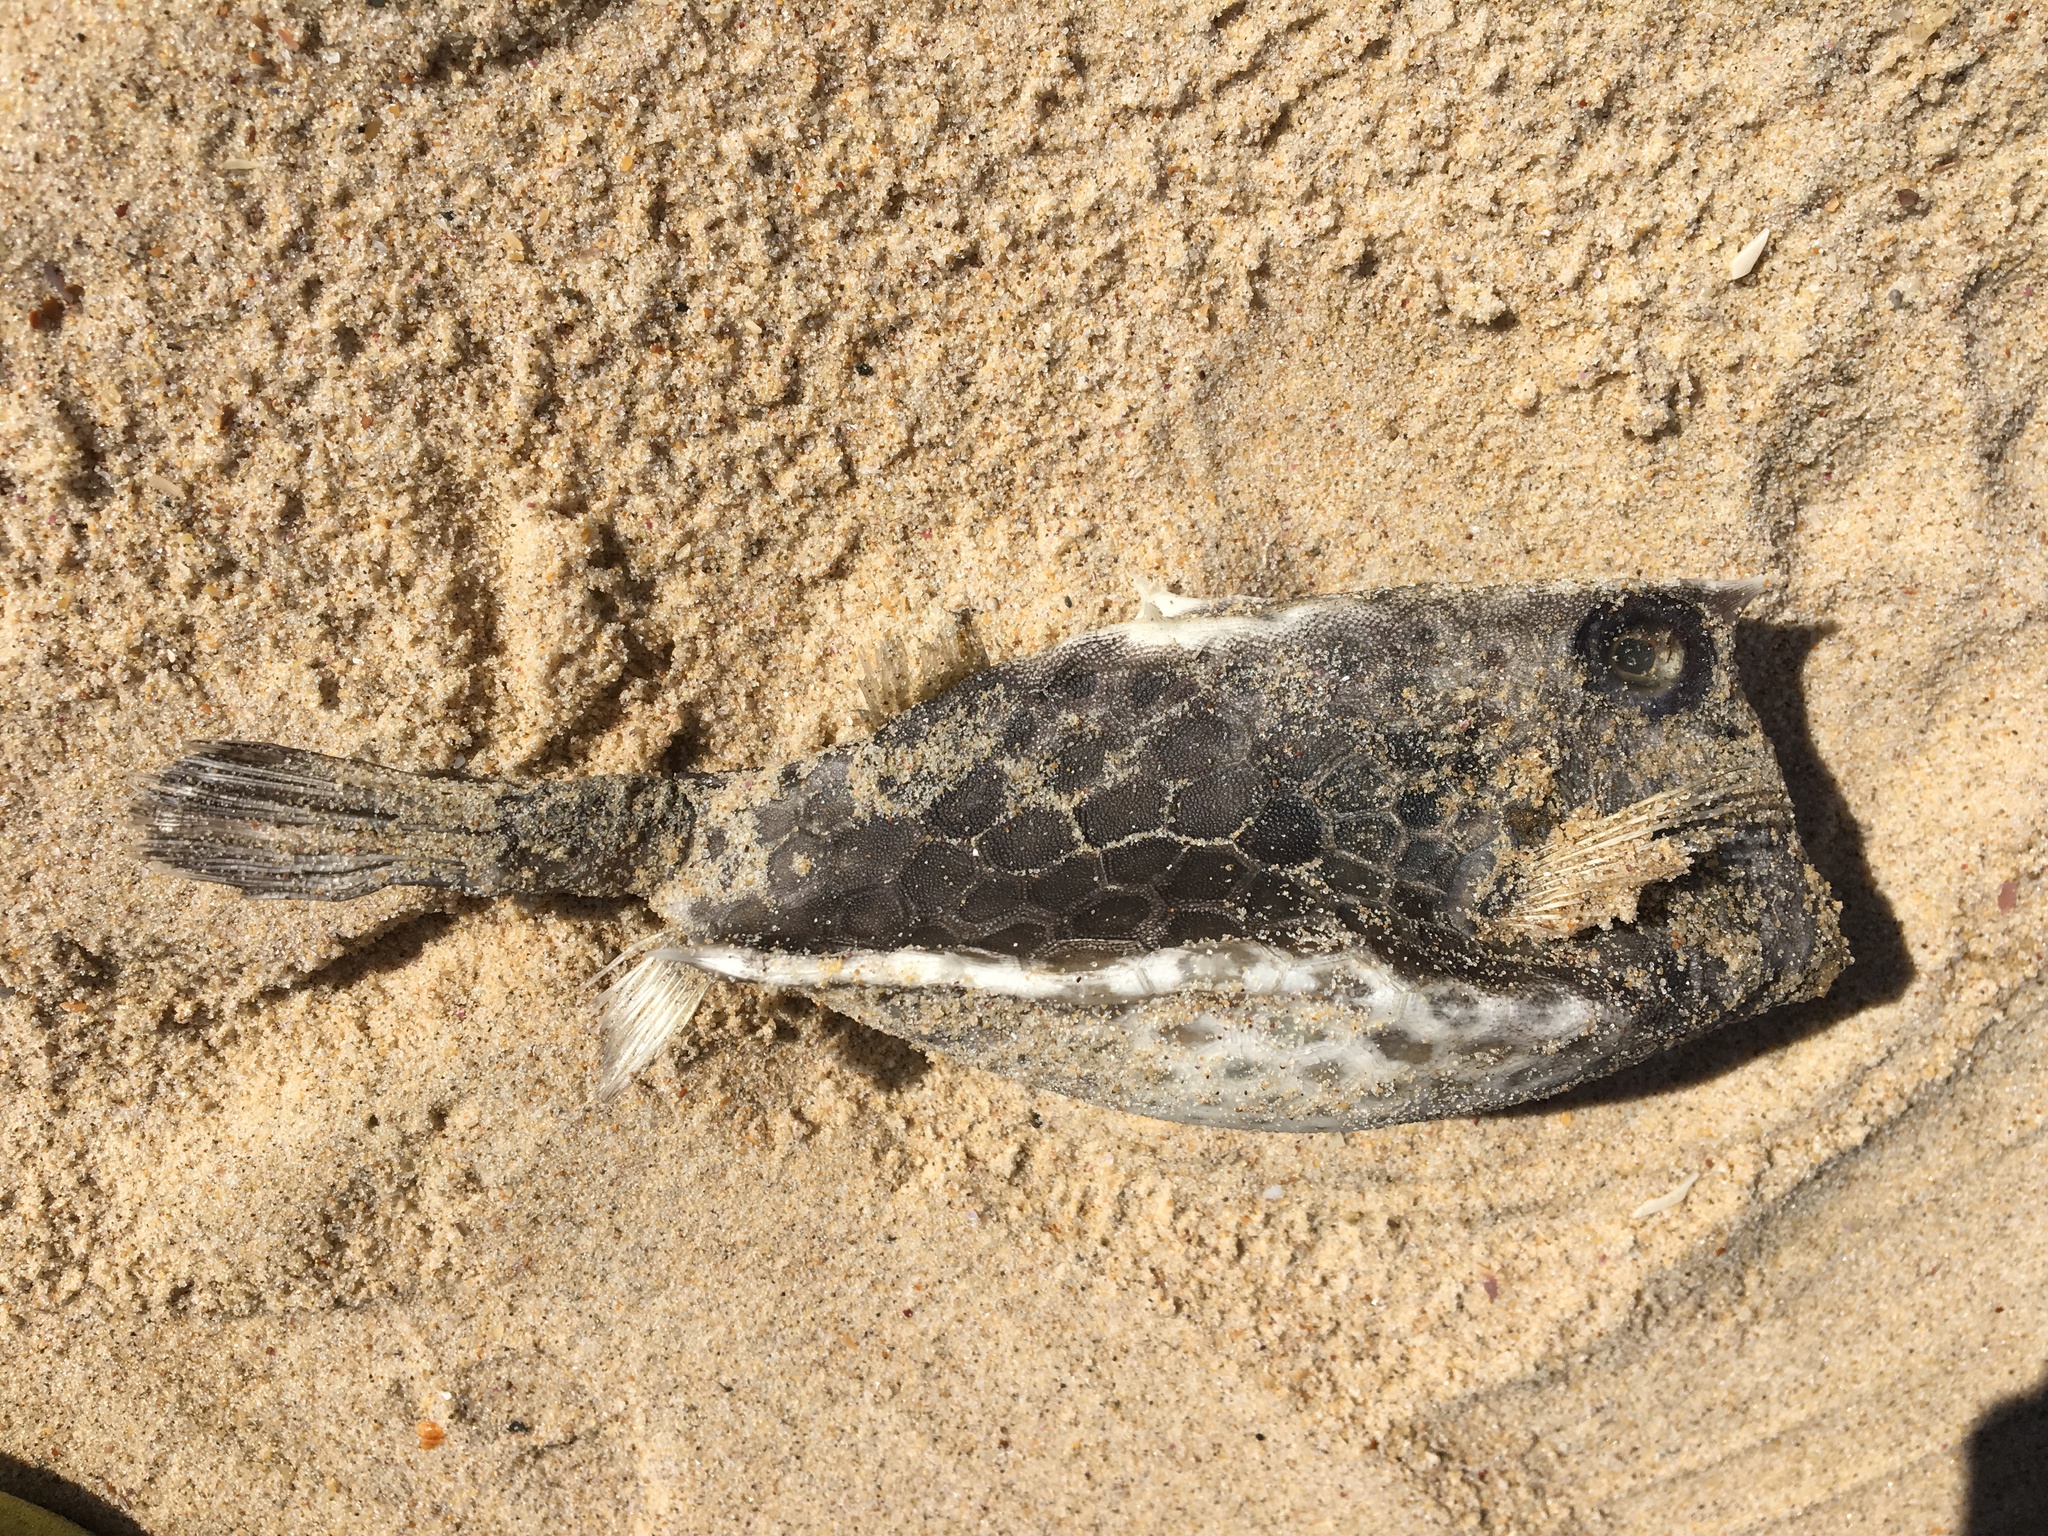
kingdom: Animalia
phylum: Chordata
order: Tetraodontiformes
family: Ostraciidae
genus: Lactoria
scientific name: Lactoria diaphana
